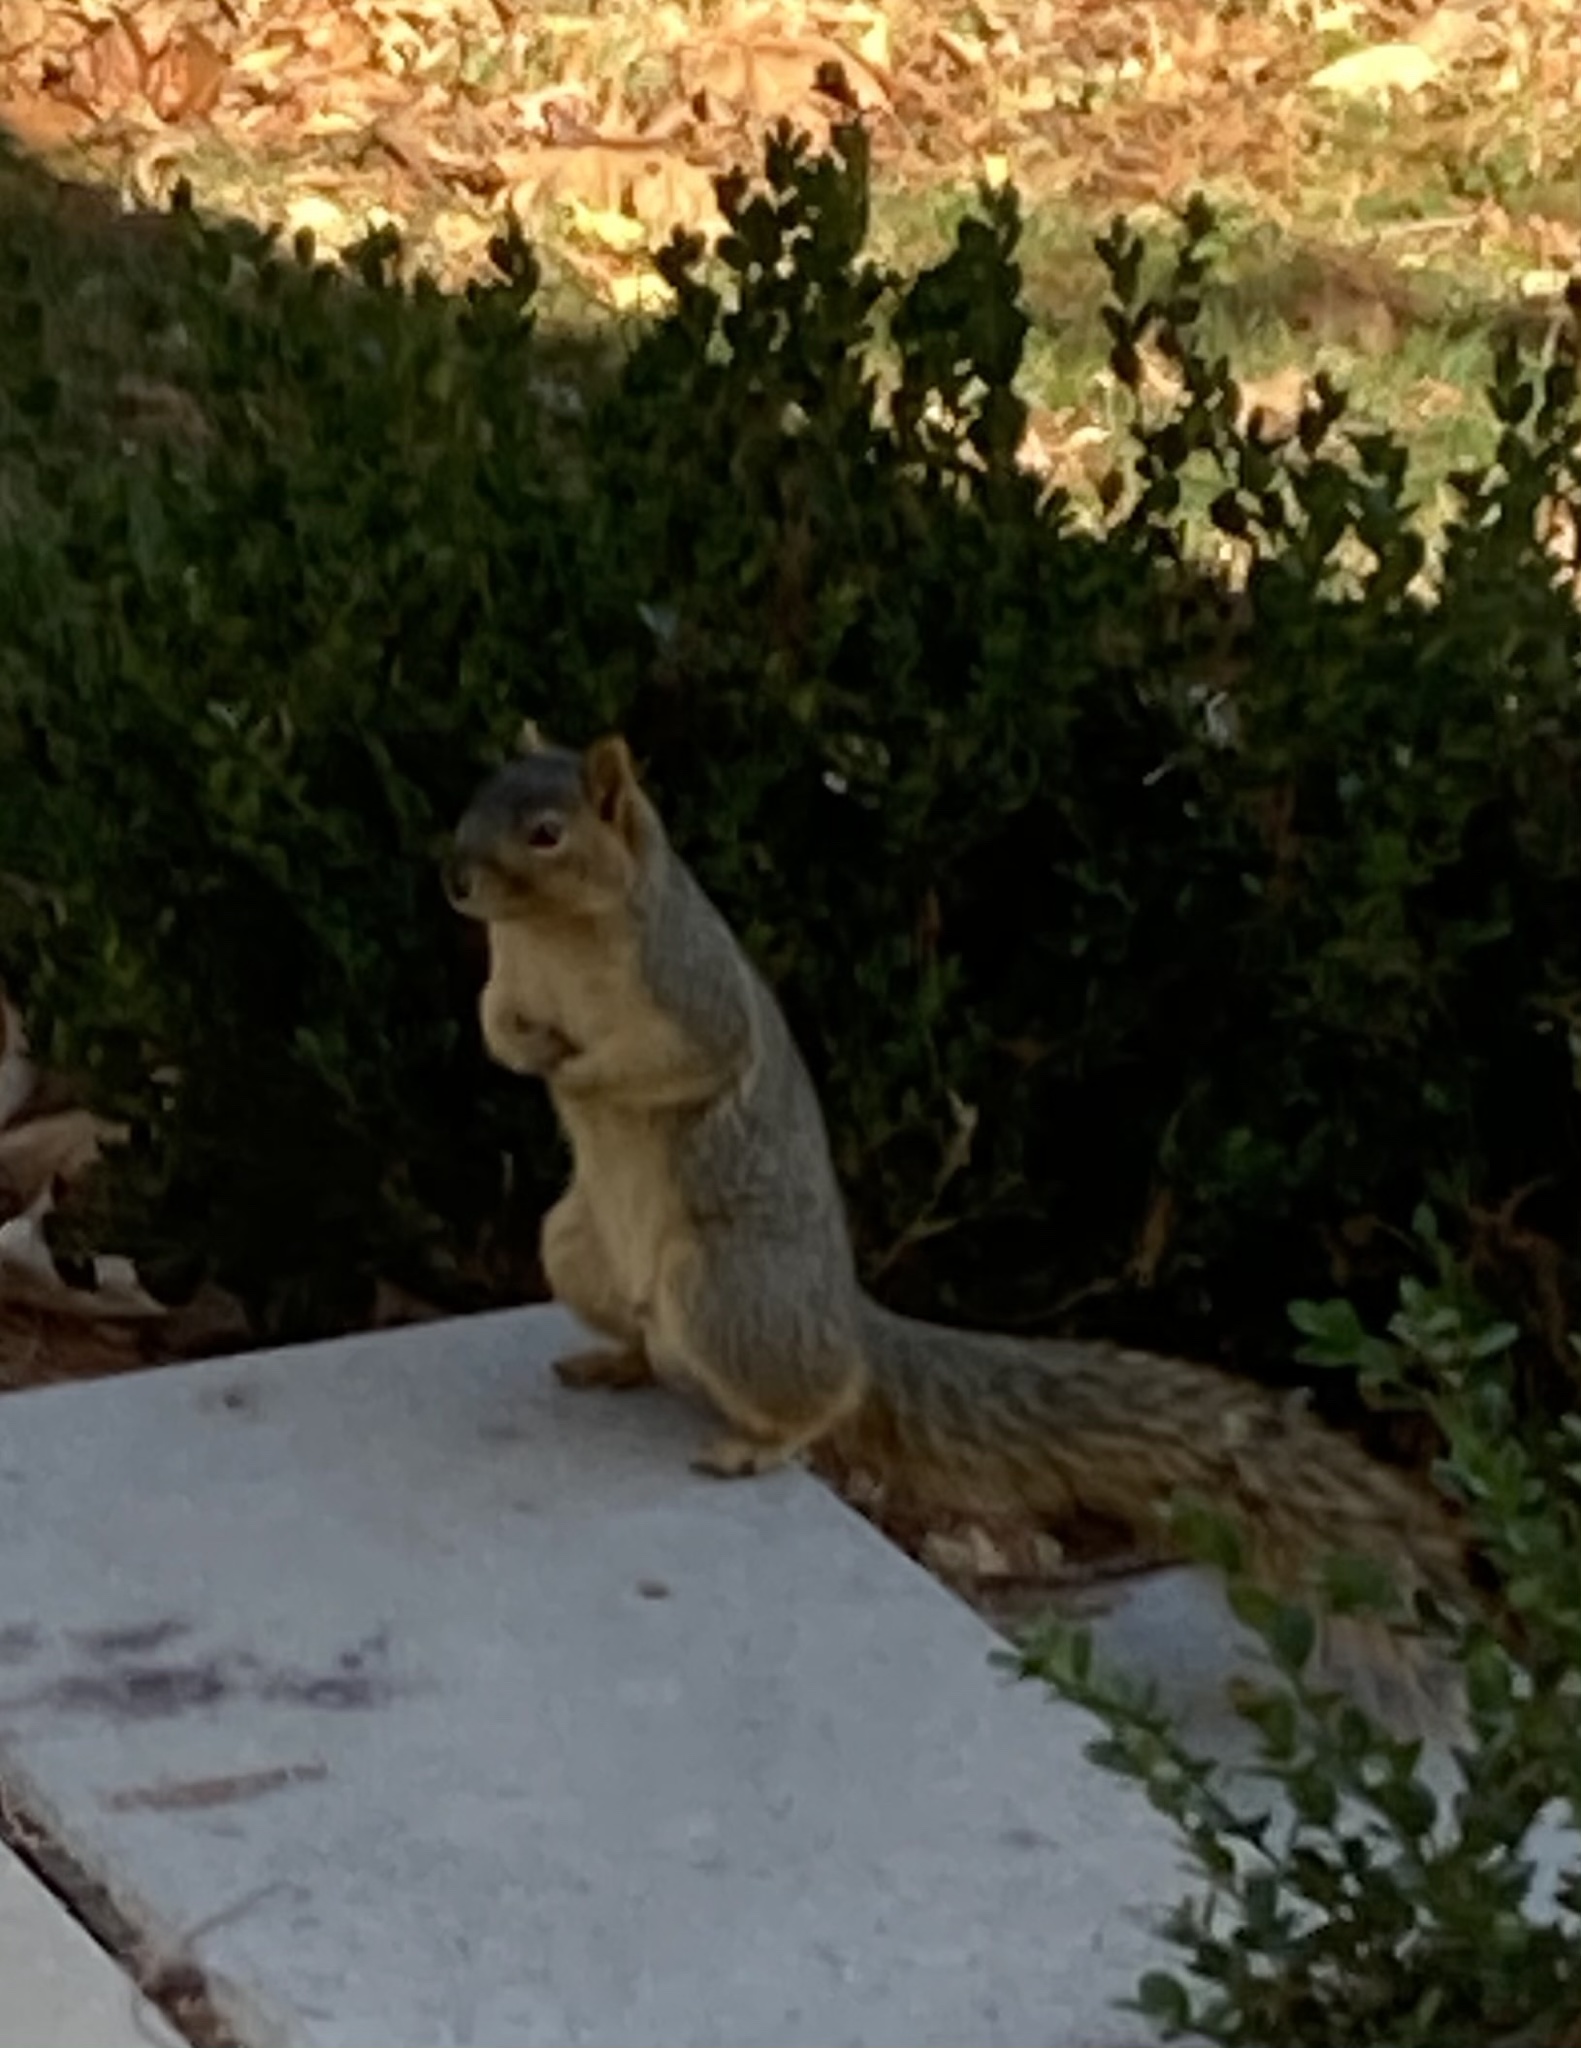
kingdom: Animalia
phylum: Chordata
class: Mammalia
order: Rodentia
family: Sciuridae
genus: Sciurus
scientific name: Sciurus niger
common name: Fox squirrel
